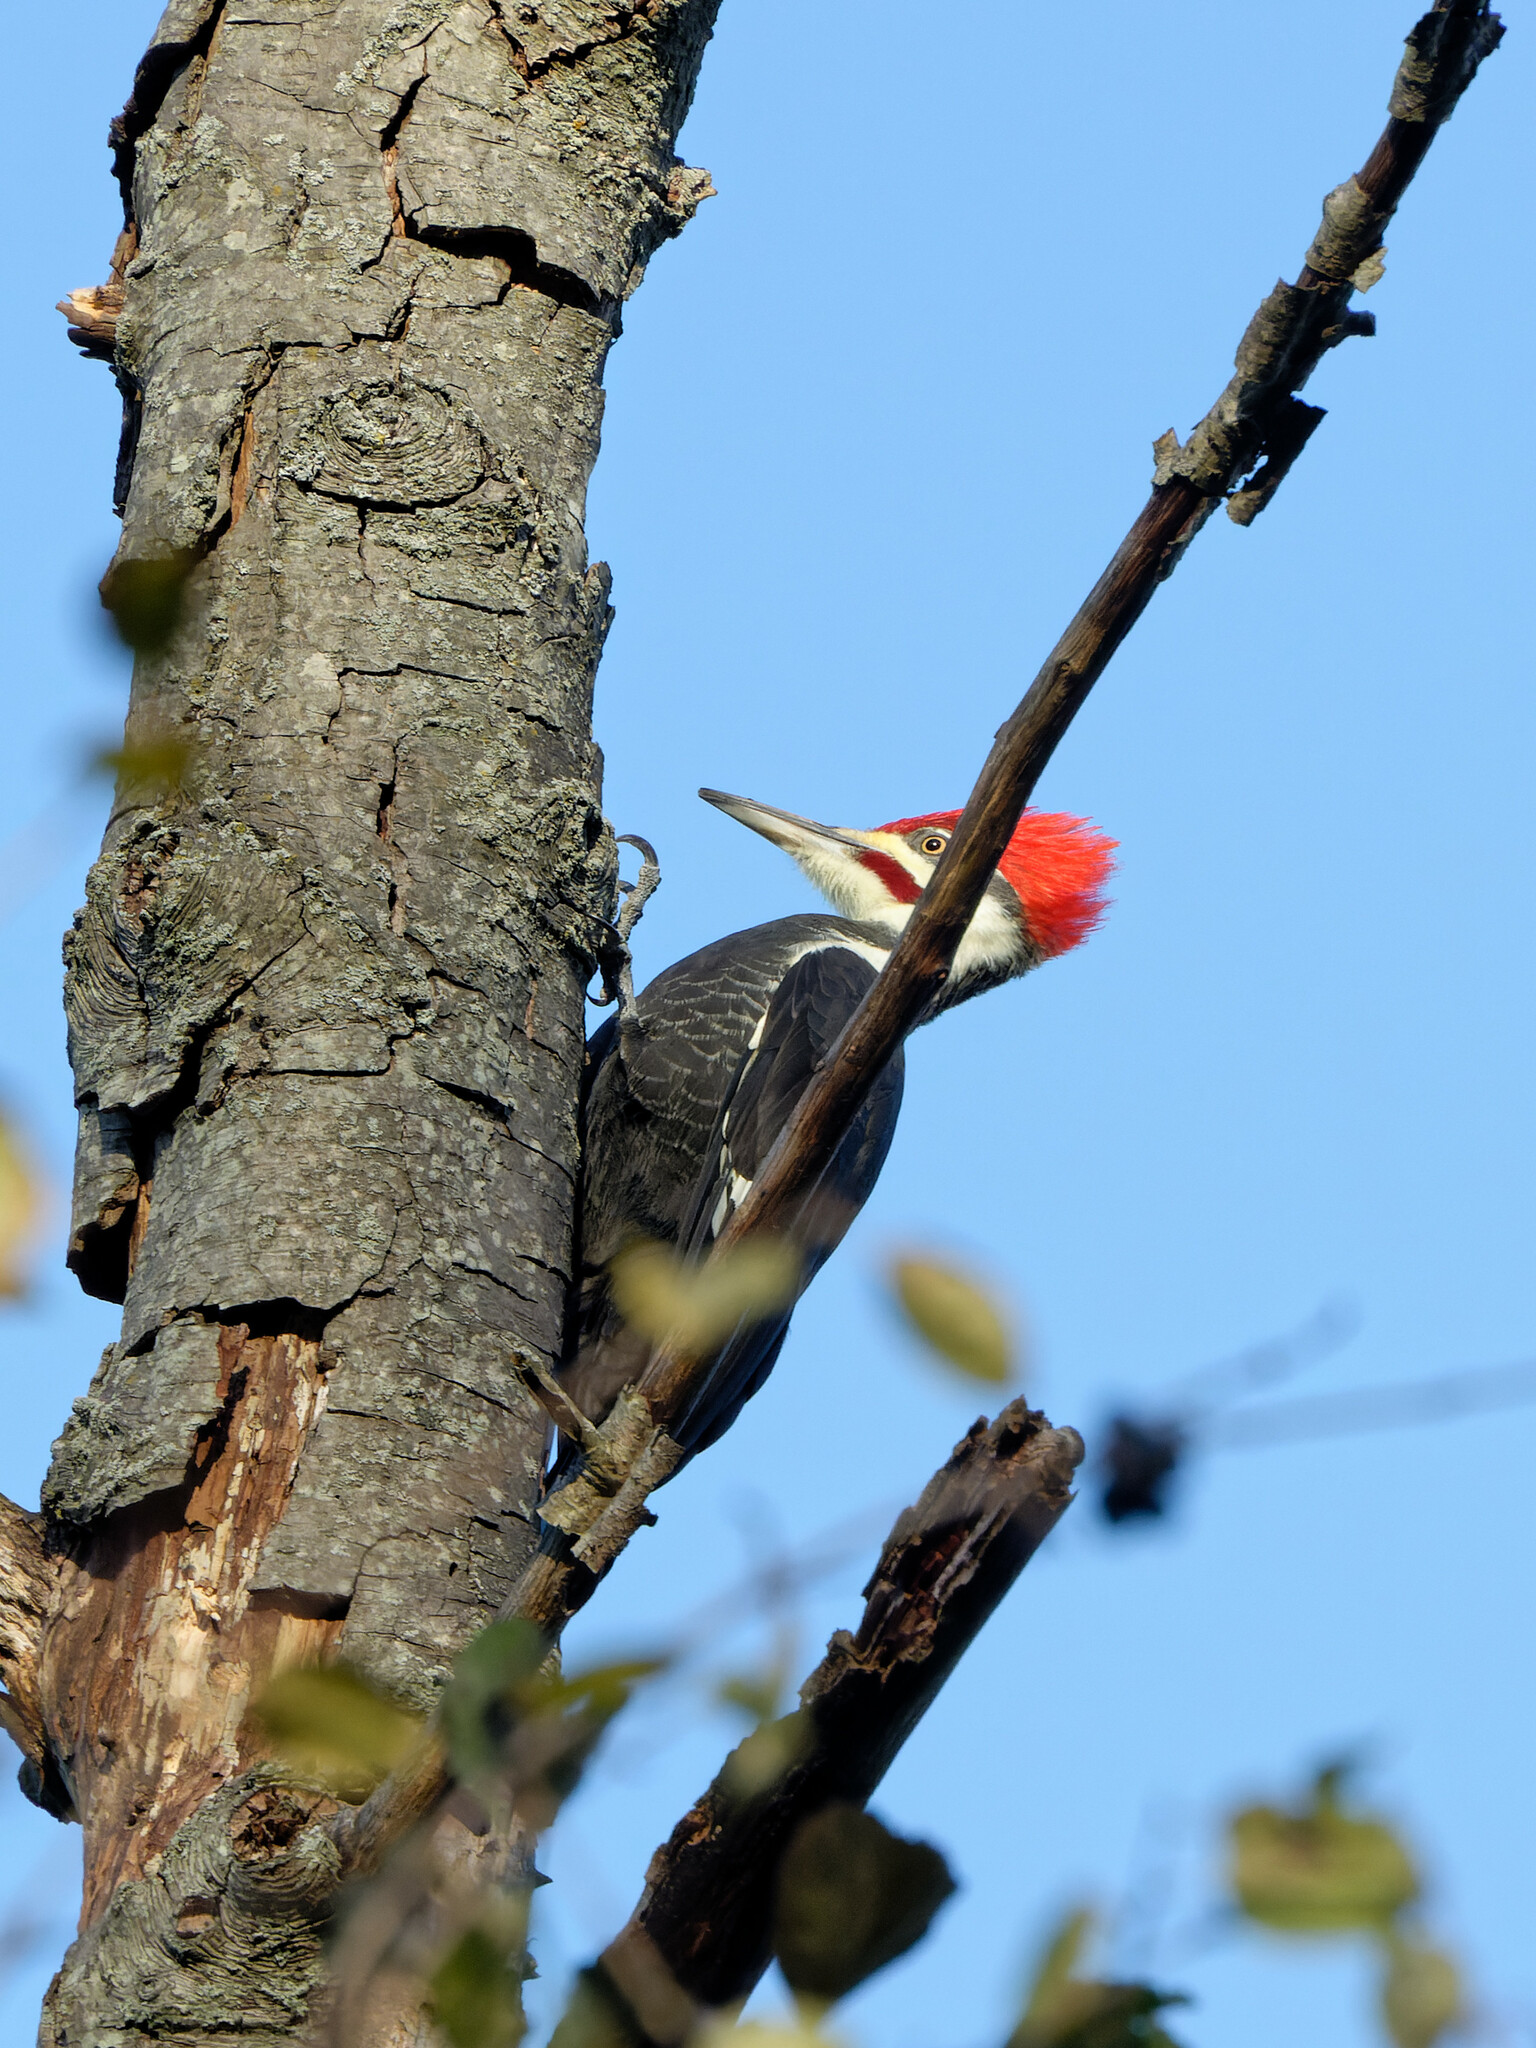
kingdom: Animalia
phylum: Chordata
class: Aves
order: Piciformes
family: Picidae
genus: Dryocopus
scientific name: Dryocopus pileatus
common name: Pileated woodpecker
